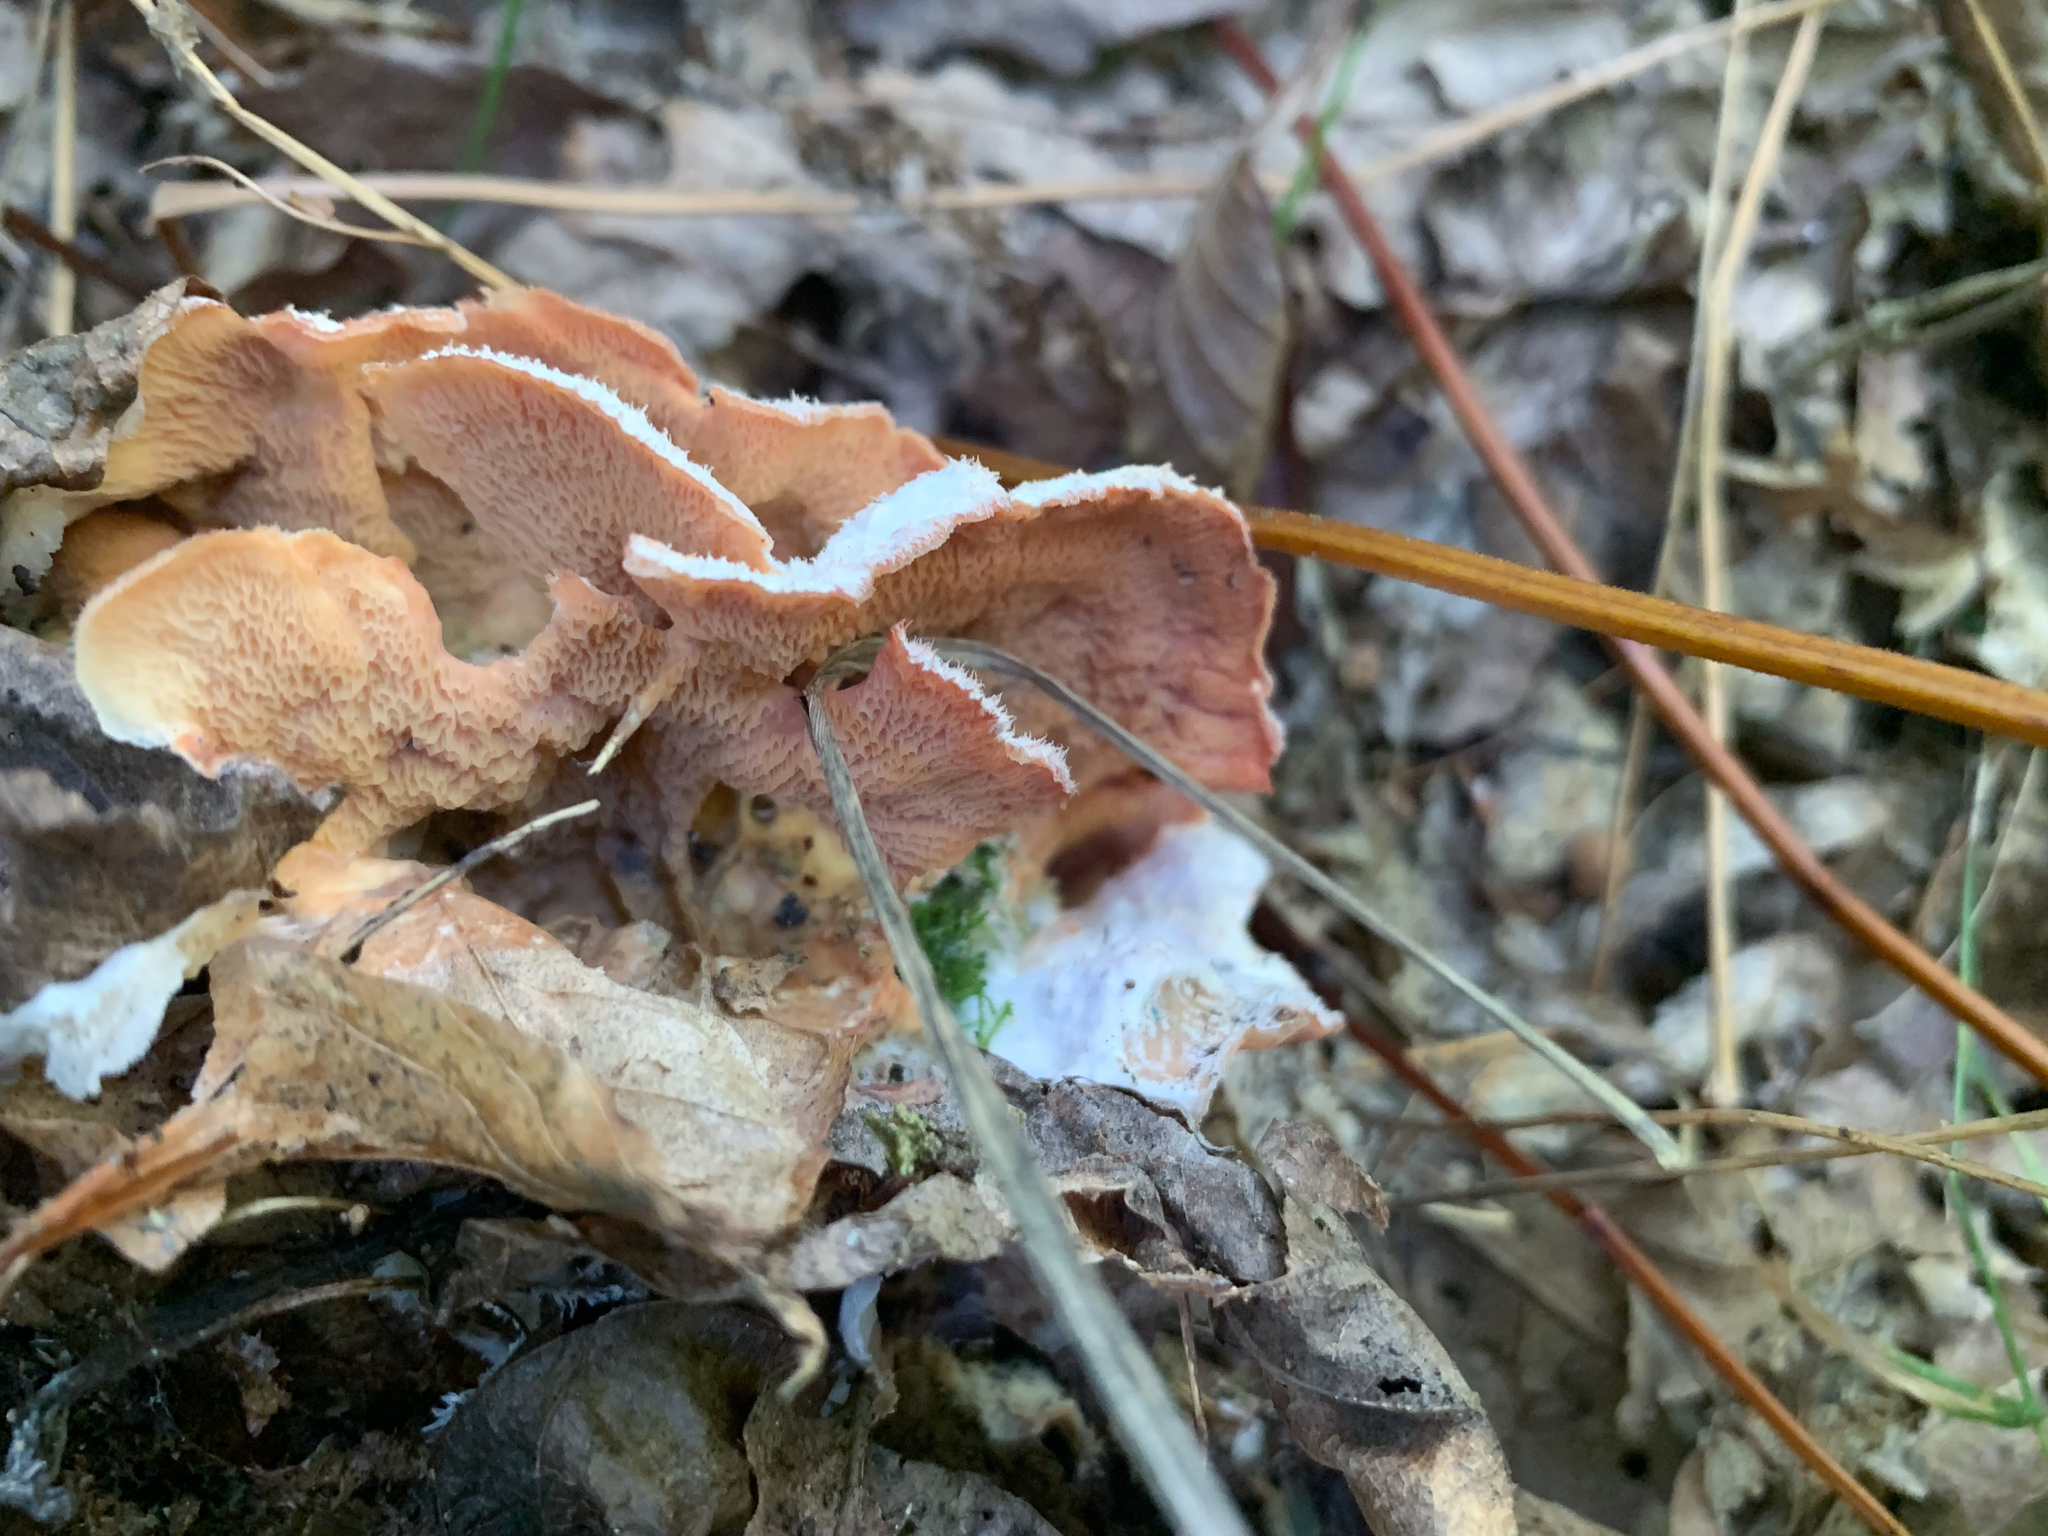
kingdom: Fungi
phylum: Basidiomycota
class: Agaricomycetes
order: Polyporales
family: Meruliaceae
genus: Phlebia
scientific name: Phlebia tremellosa
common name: Jelly rot
